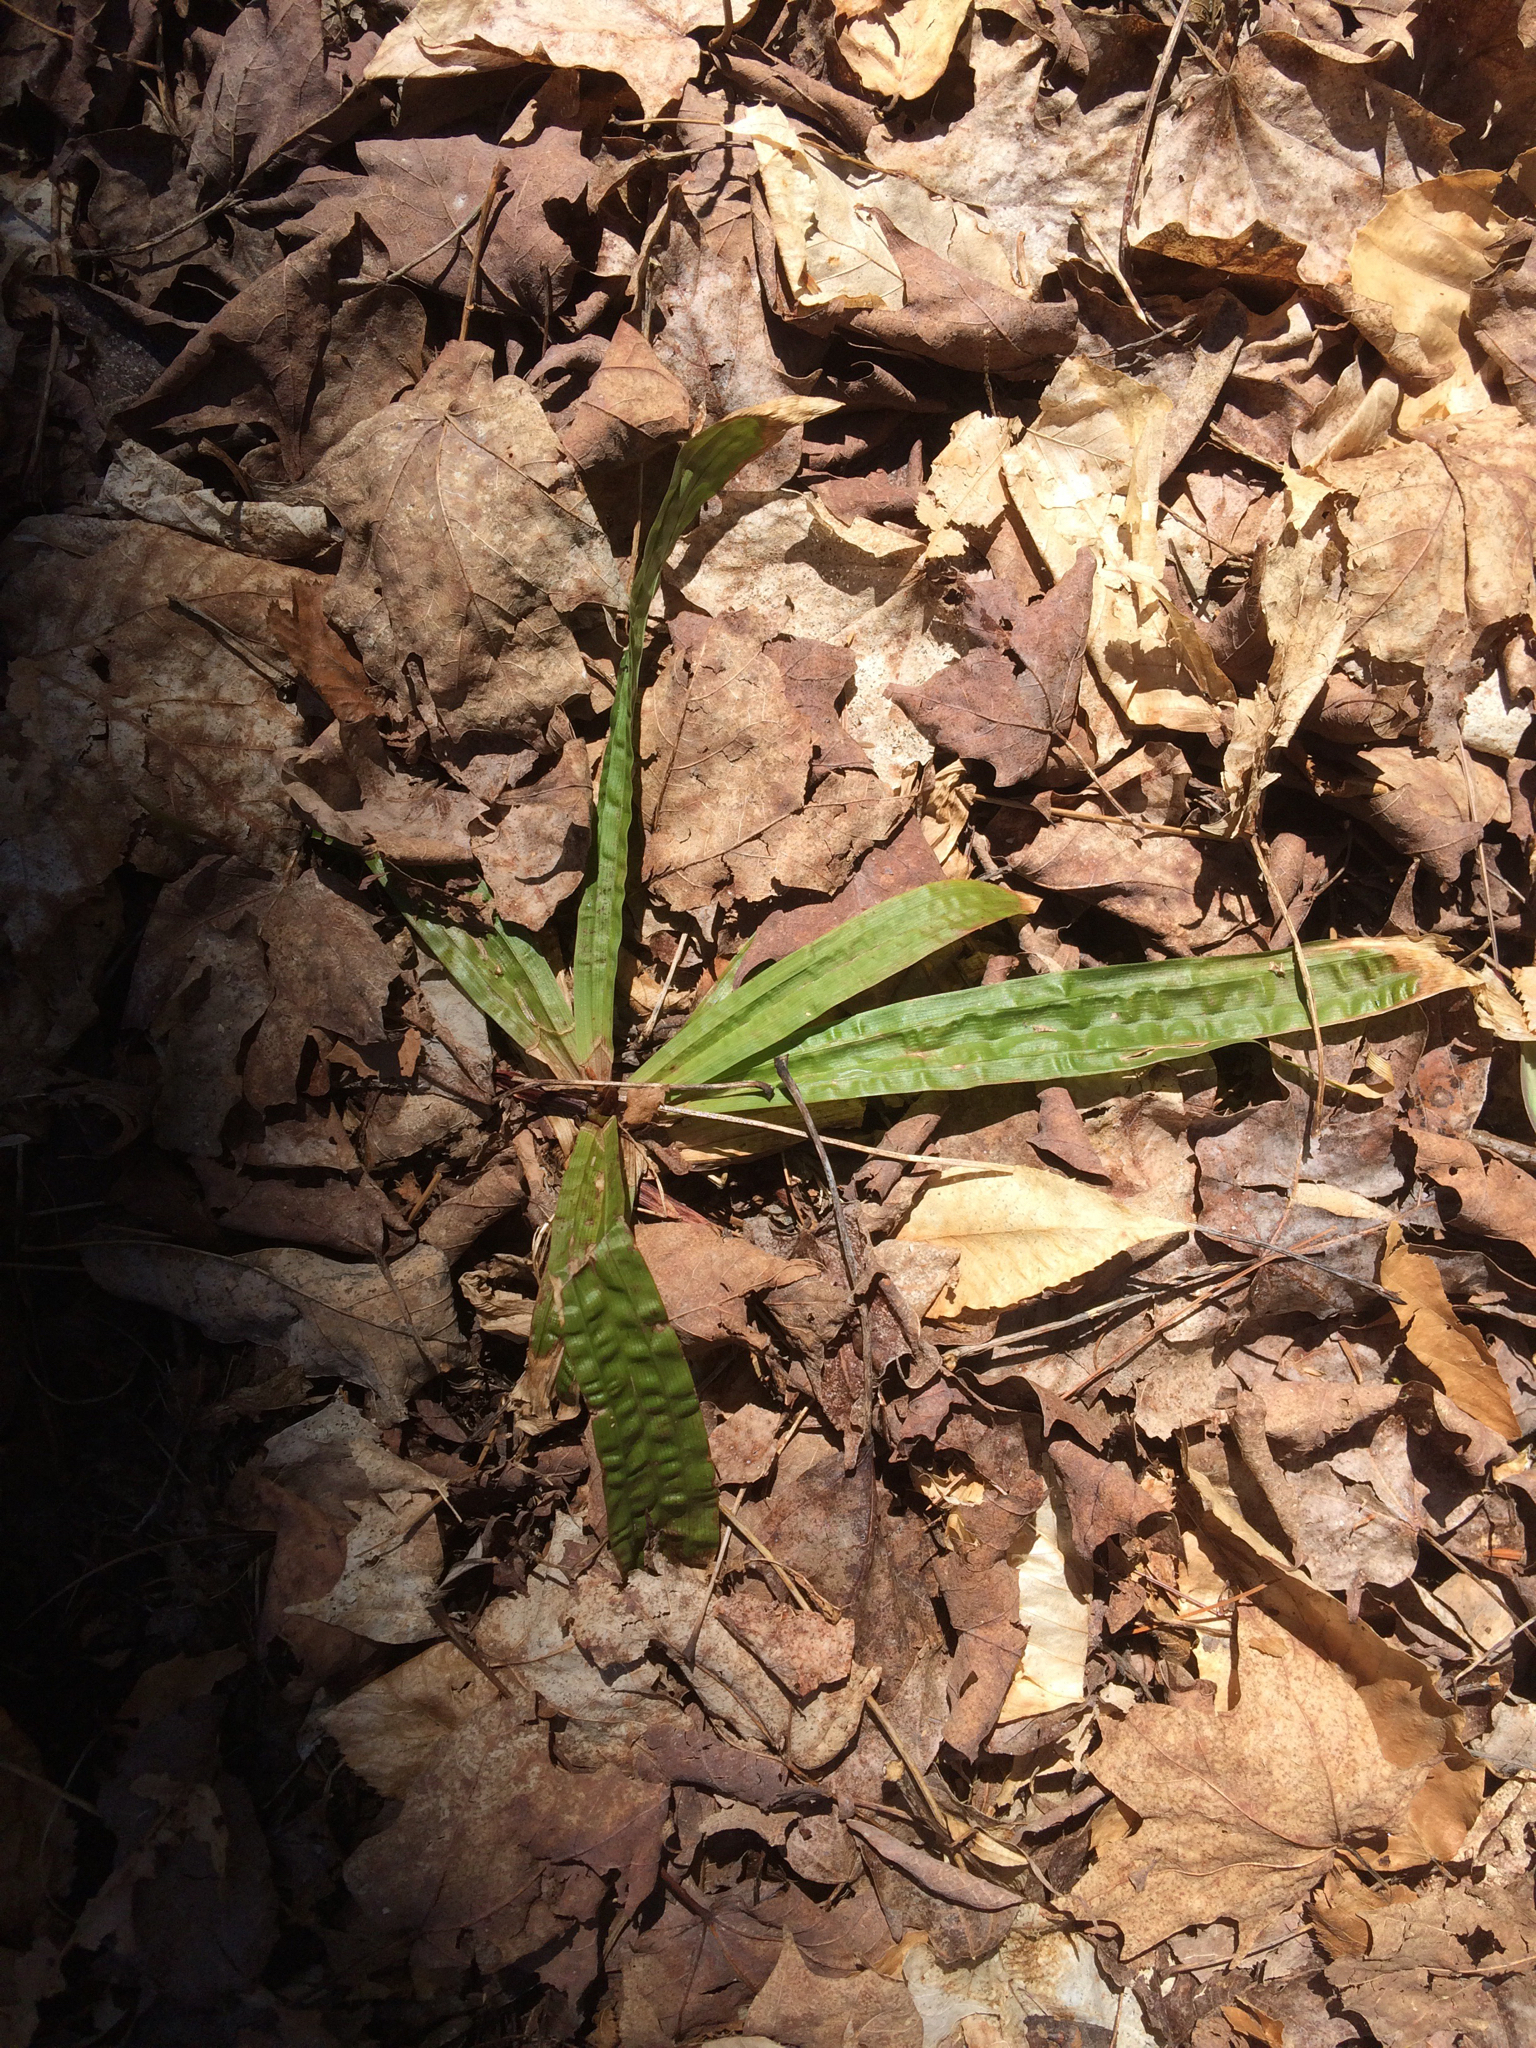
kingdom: Plantae
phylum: Tracheophyta
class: Liliopsida
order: Poales
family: Cyperaceae
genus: Carex
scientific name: Carex plantaginea
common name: Plantain-leaved sedge
